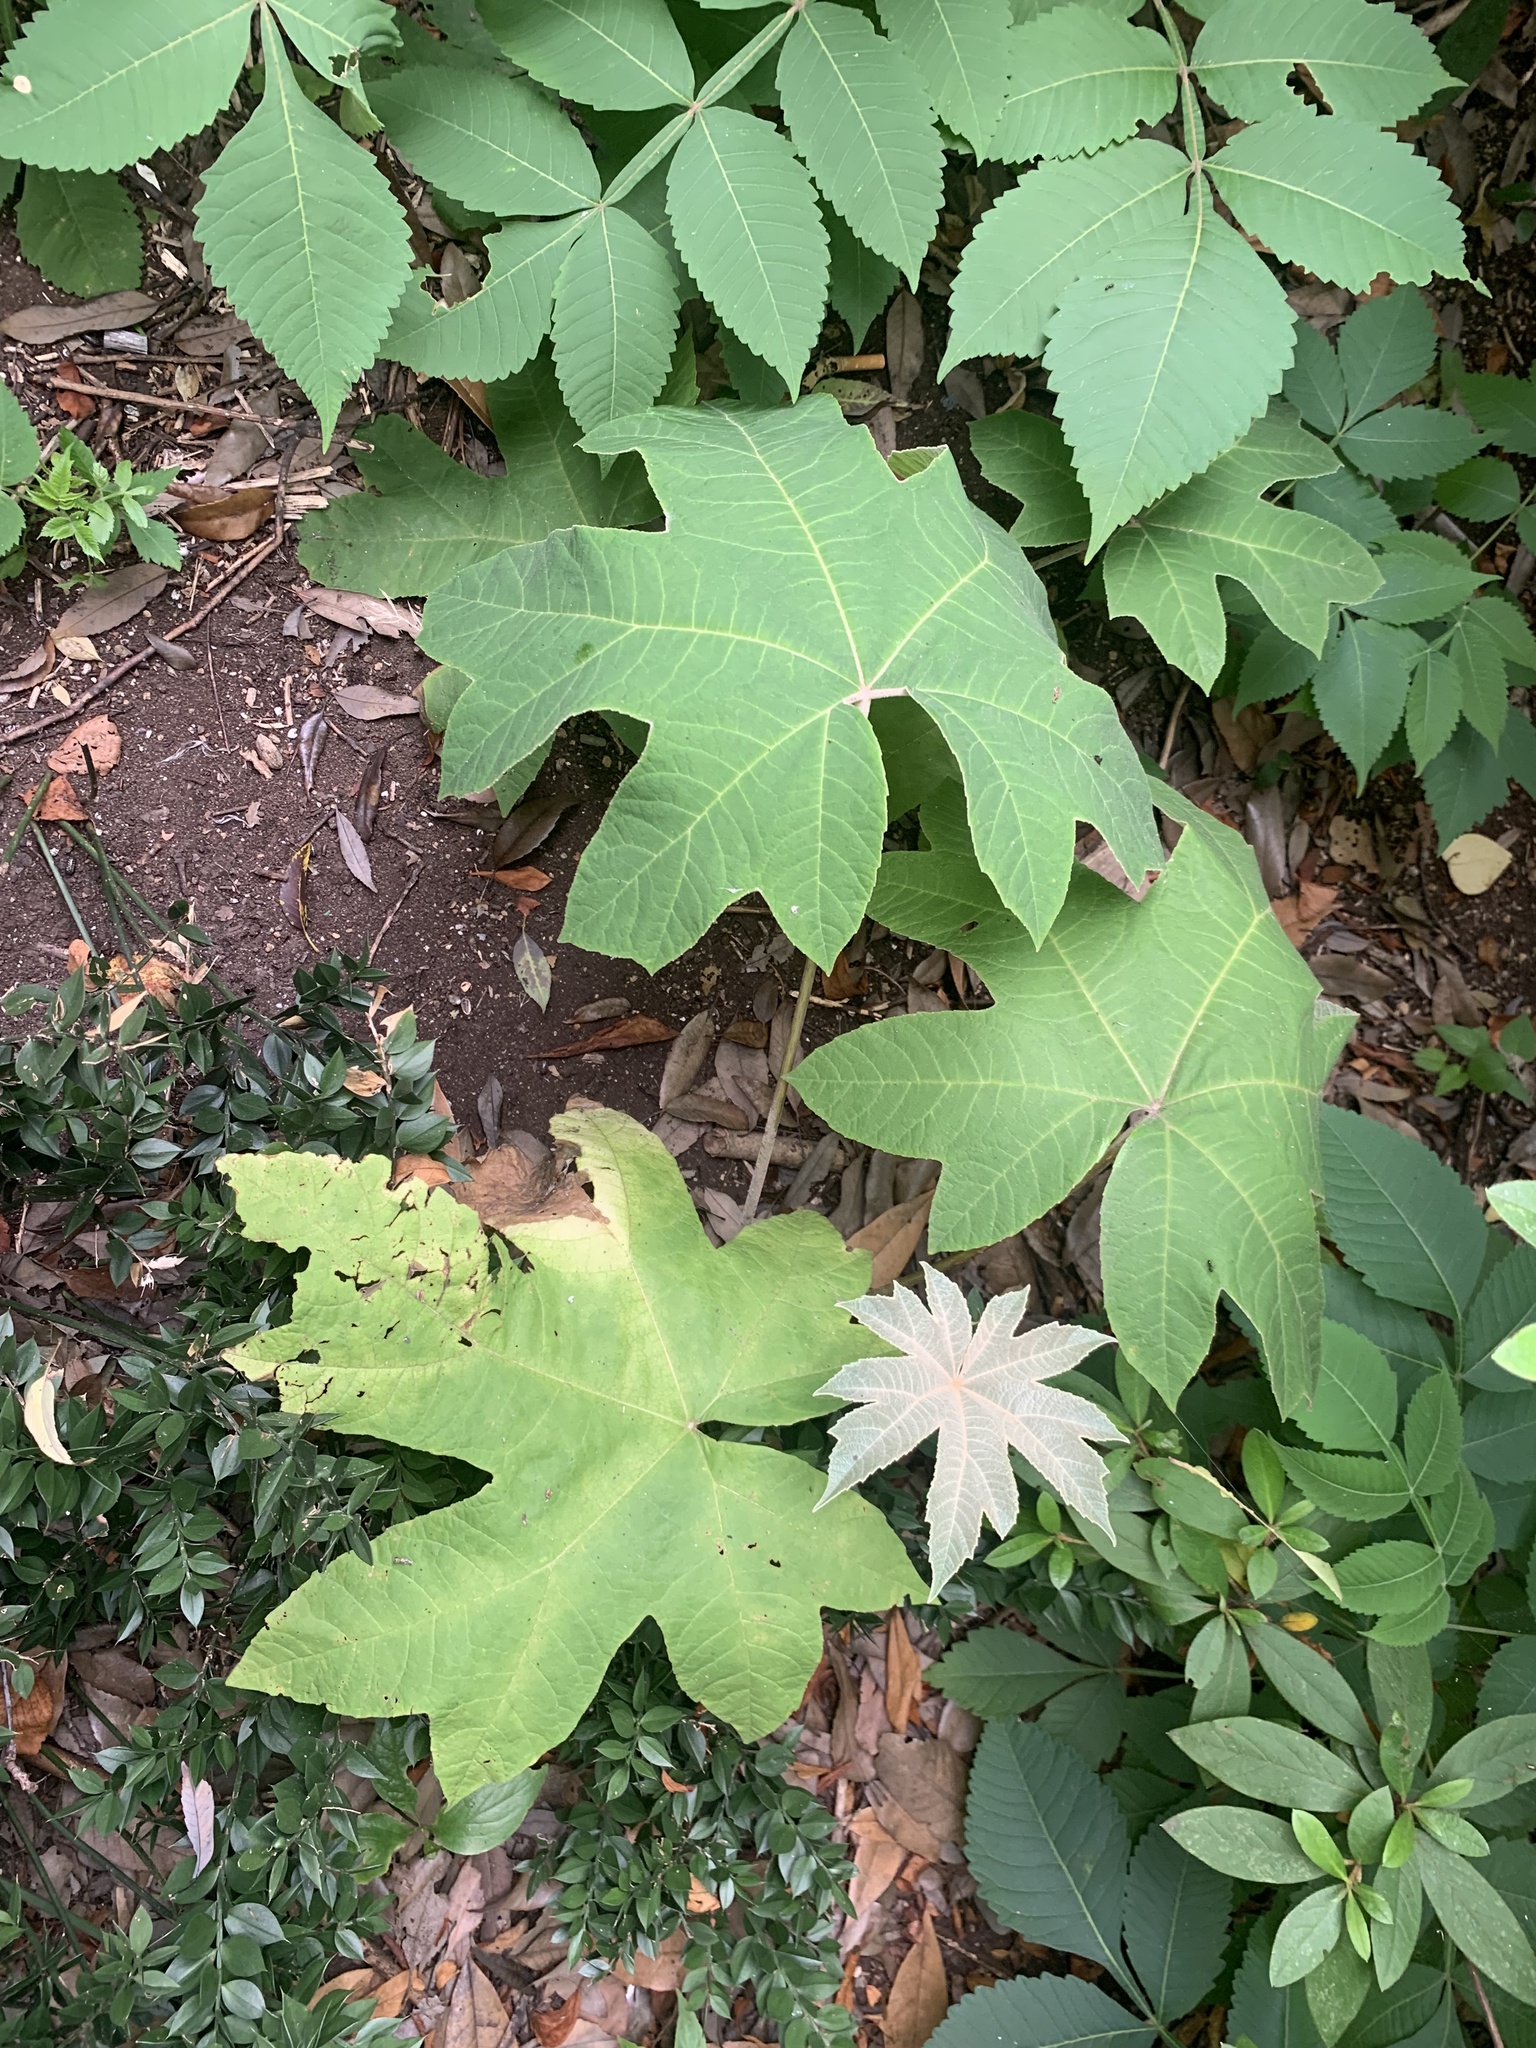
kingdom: Plantae
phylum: Tracheophyta
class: Magnoliopsida
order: Apiales
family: Araliaceae
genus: Tetrapanax
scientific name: Tetrapanax papyrifer
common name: Rice-paper plant
